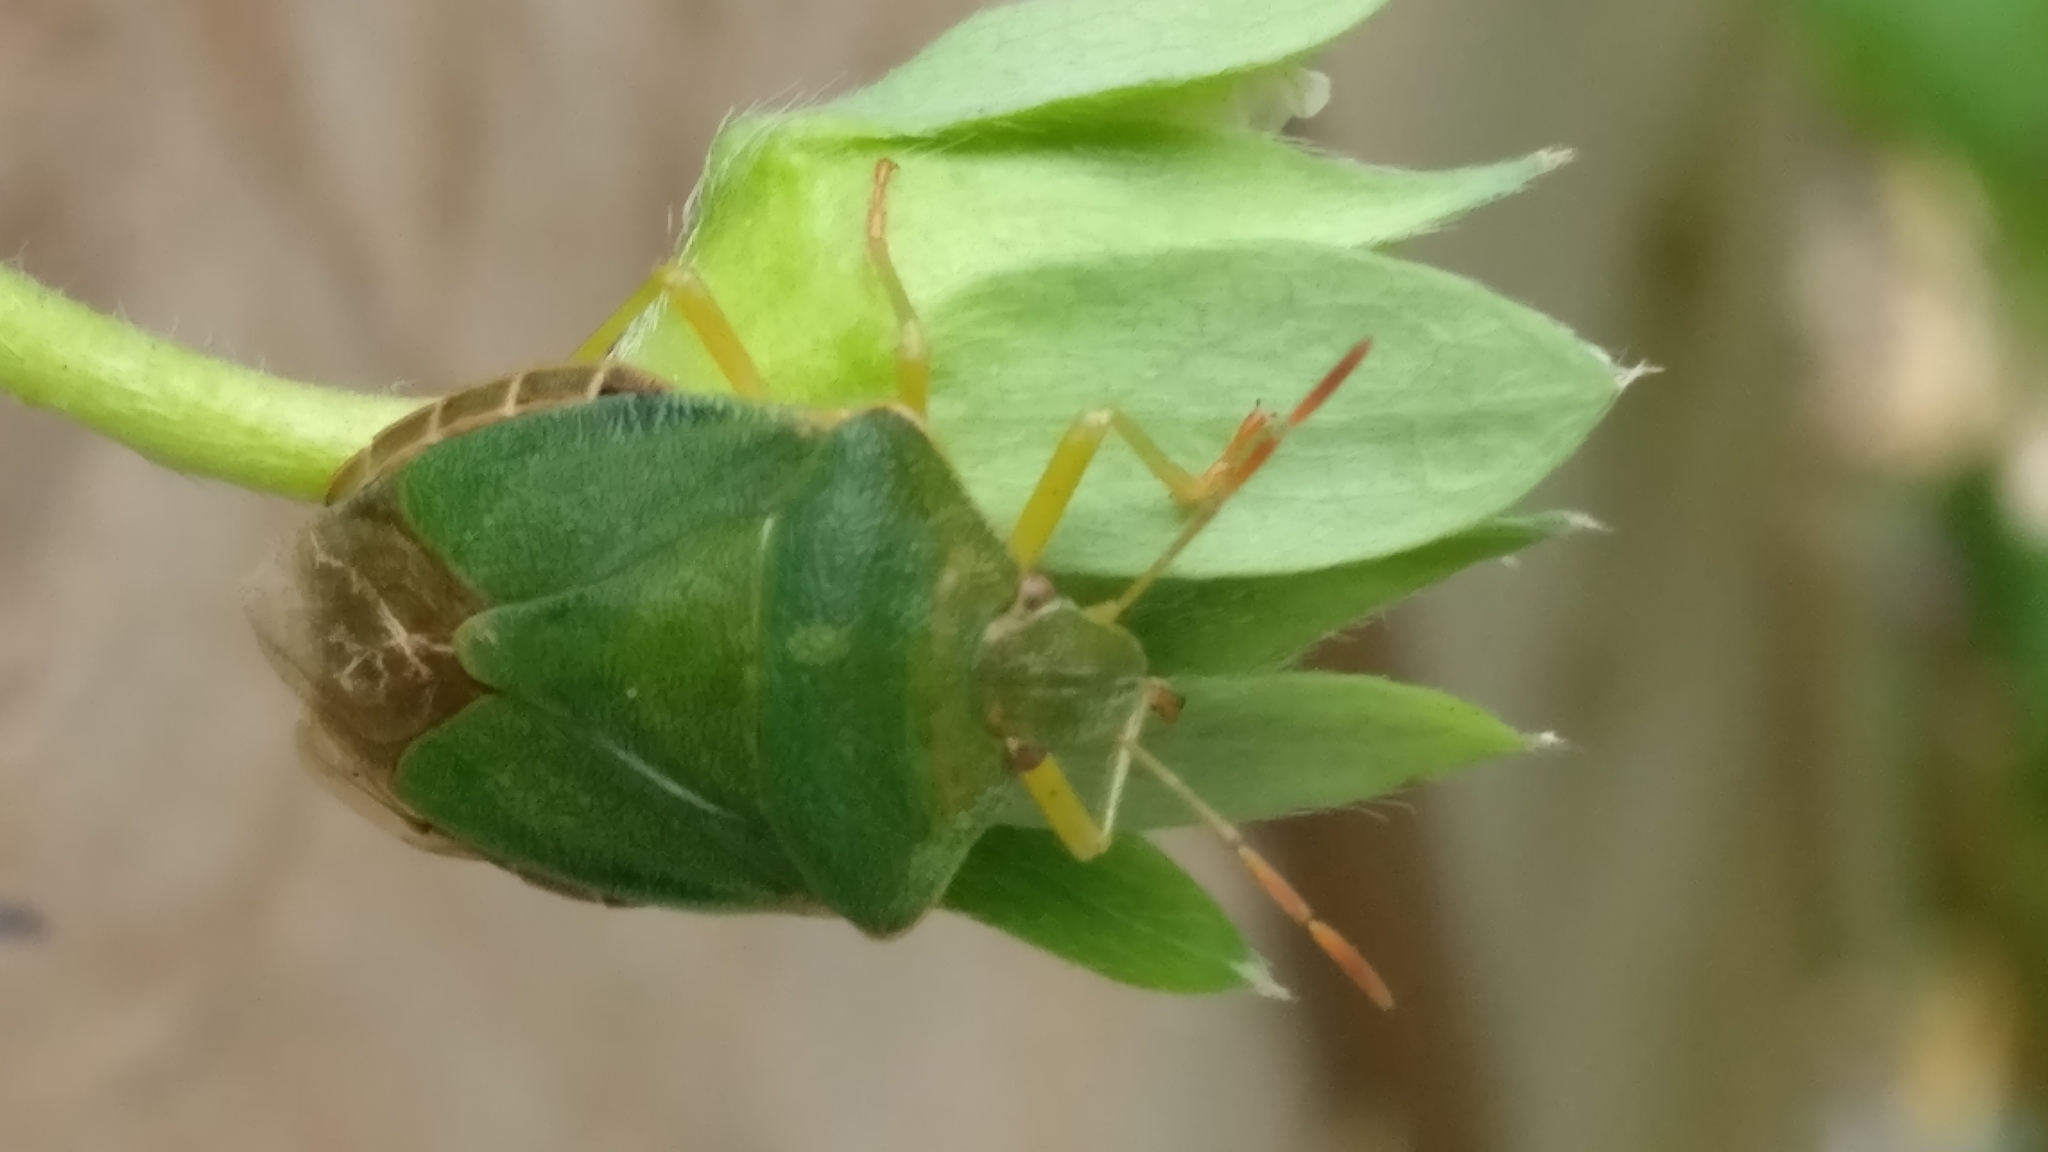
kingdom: Animalia
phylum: Arthropoda
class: Insecta
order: Hemiptera
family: Pentatomidae
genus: Palomena
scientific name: Palomena prasina
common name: Green shieldbug
